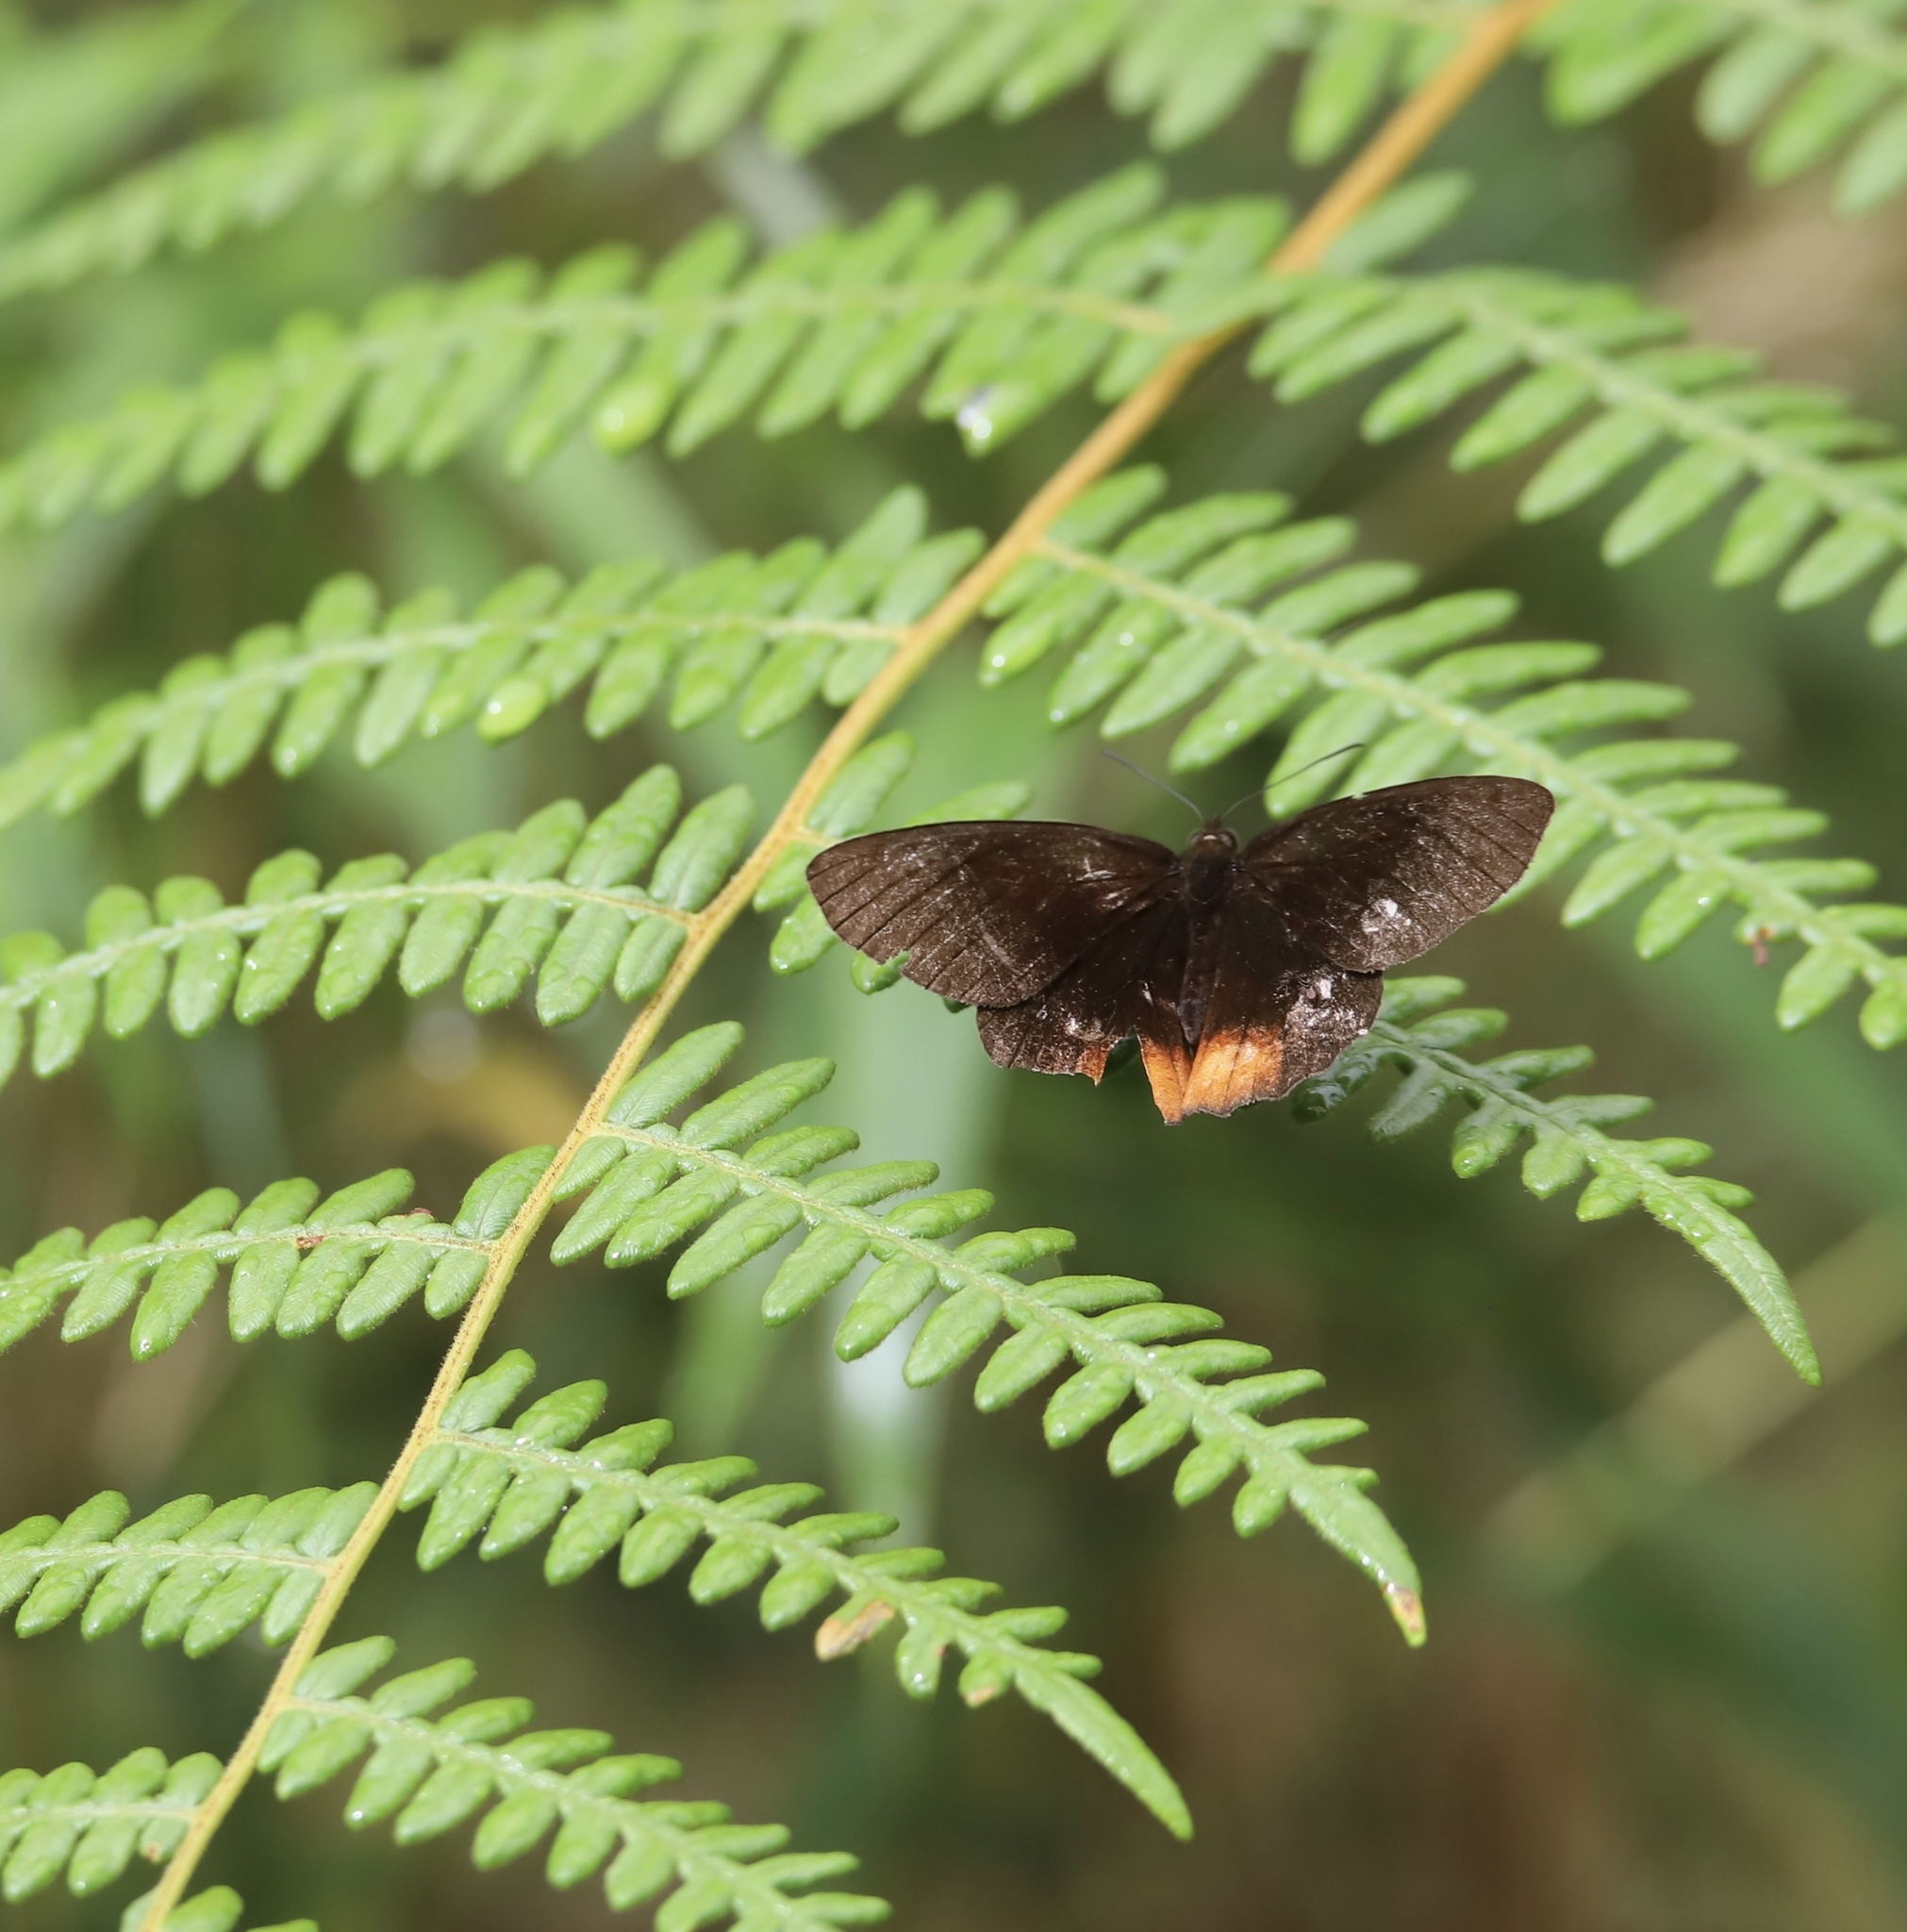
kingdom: Animalia
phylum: Arthropoda
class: Insecta
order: Lepidoptera
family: Nymphalidae
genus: Pedaliodes
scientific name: Pedaliodes plotina
